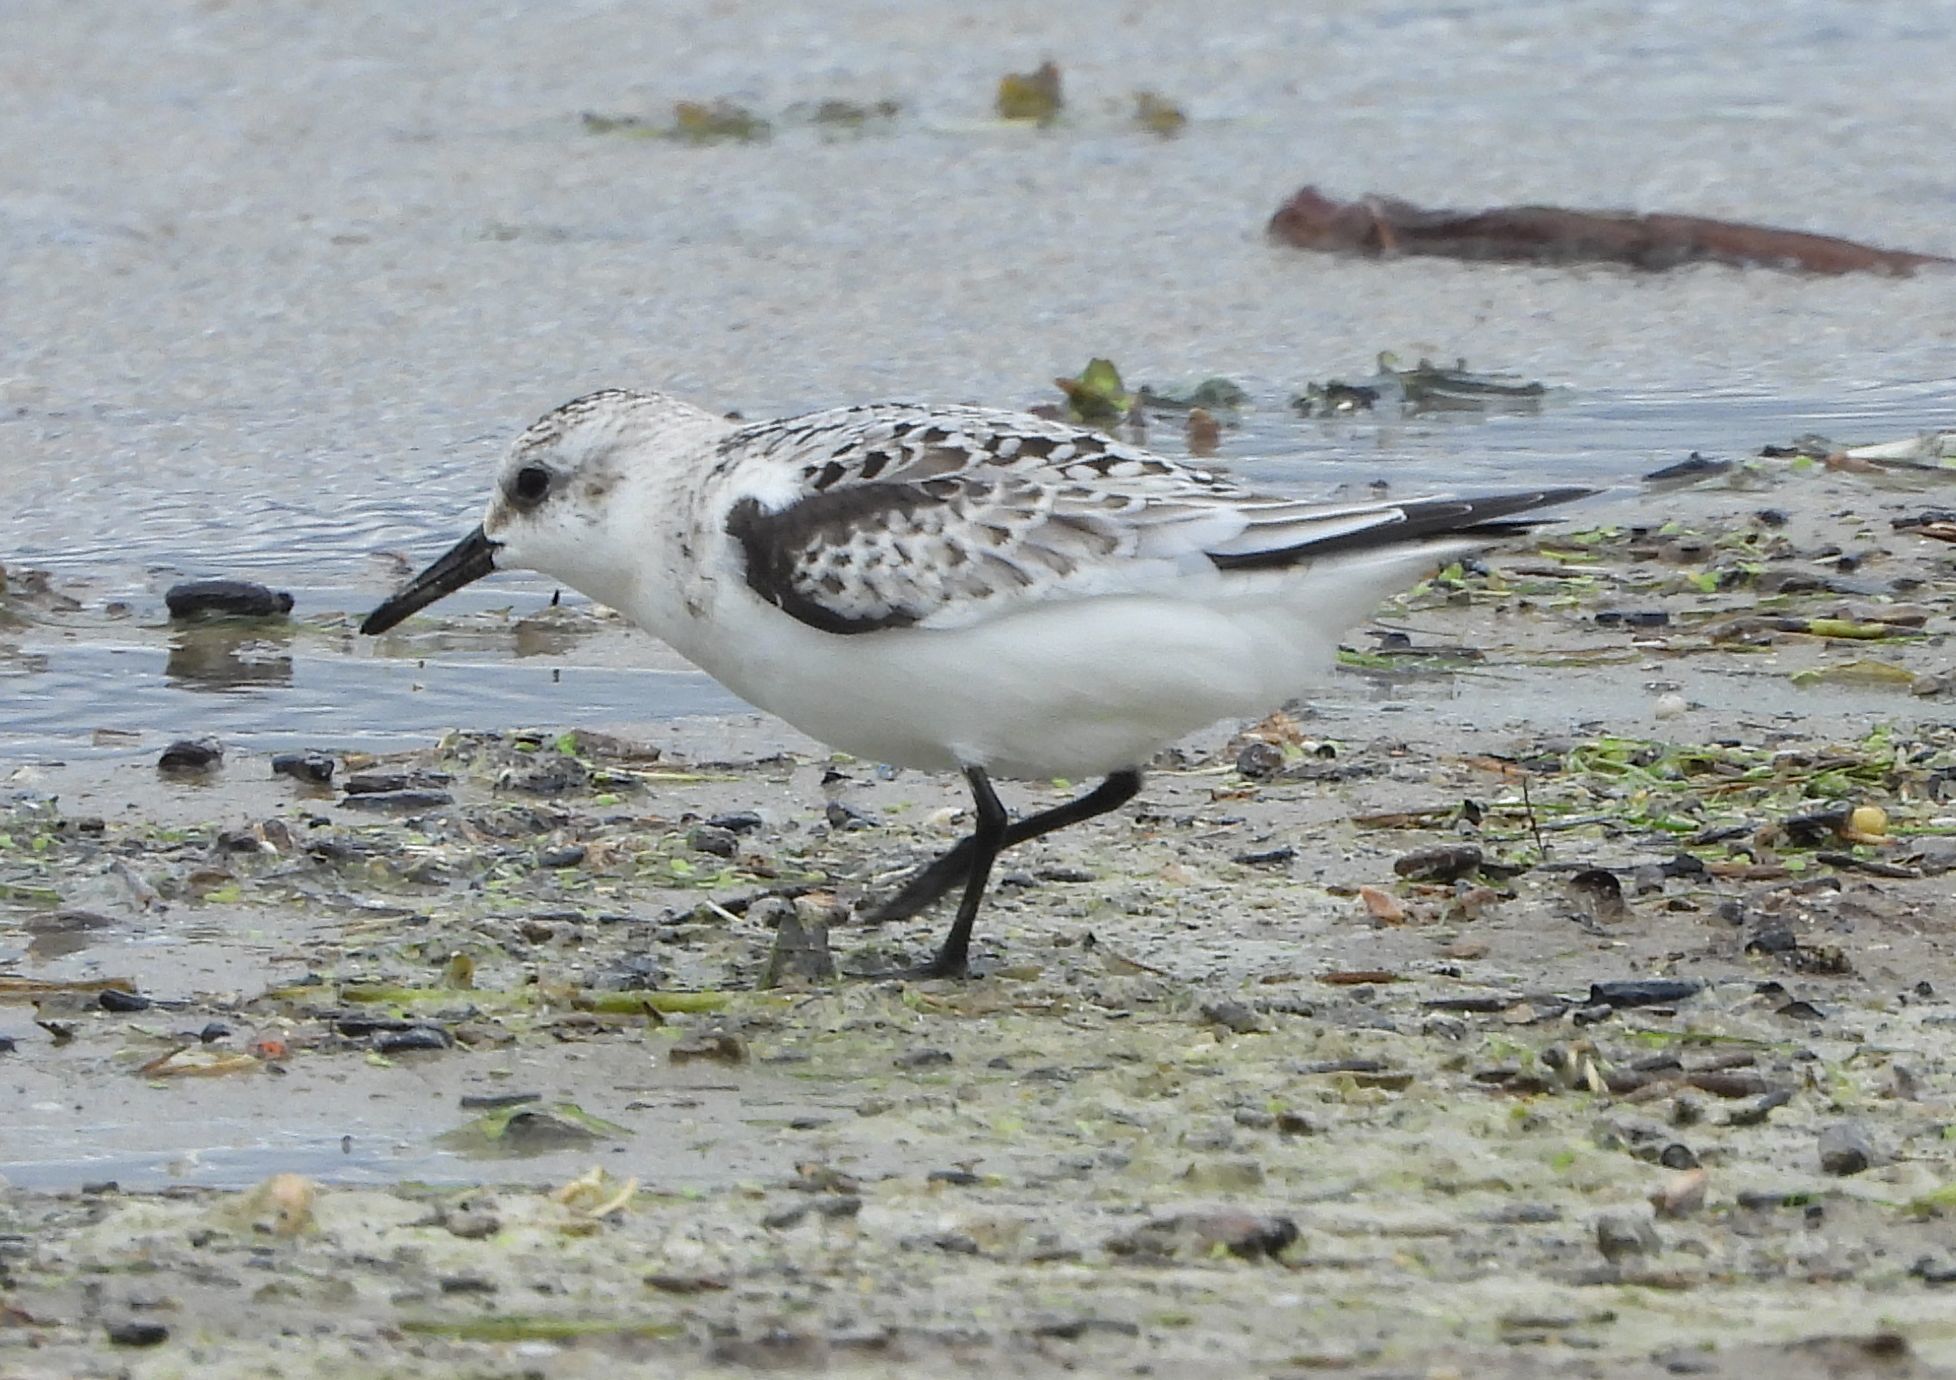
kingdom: Animalia
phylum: Chordata
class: Aves
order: Charadriiformes
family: Scolopacidae
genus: Calidris
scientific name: Calidris alba
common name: Sanderling
